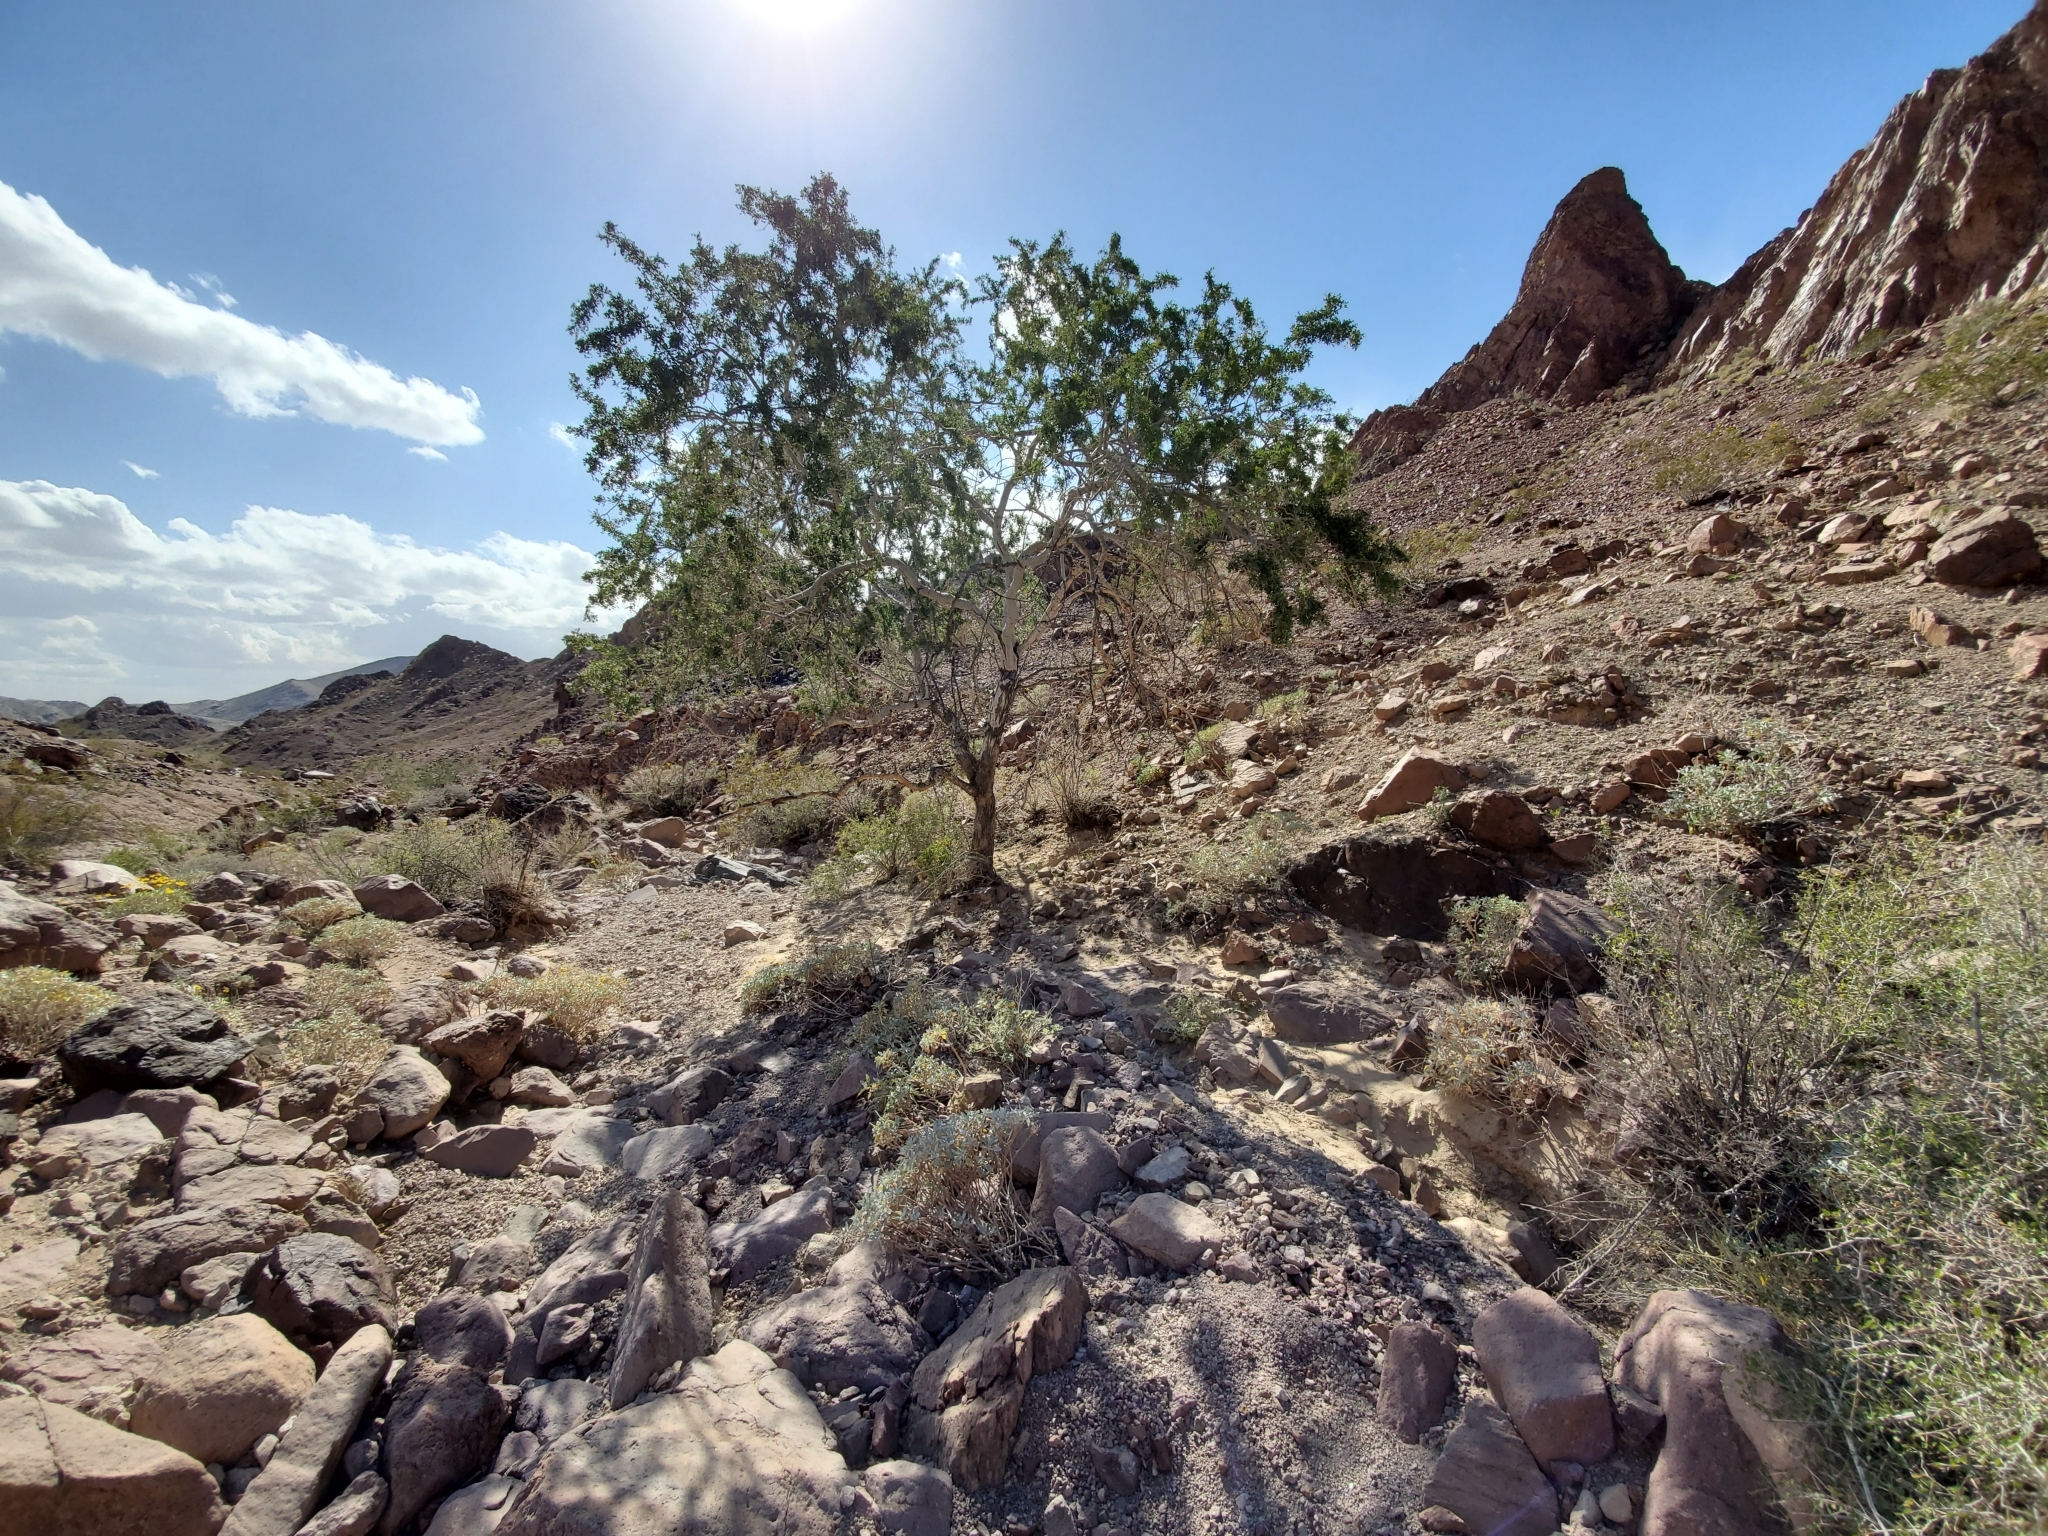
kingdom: Plantae
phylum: Tracheophyta
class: Magnoliopsida
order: Fabales
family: Fabaceae
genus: Olneya
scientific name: Olneya tesota
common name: Desert ironwood
